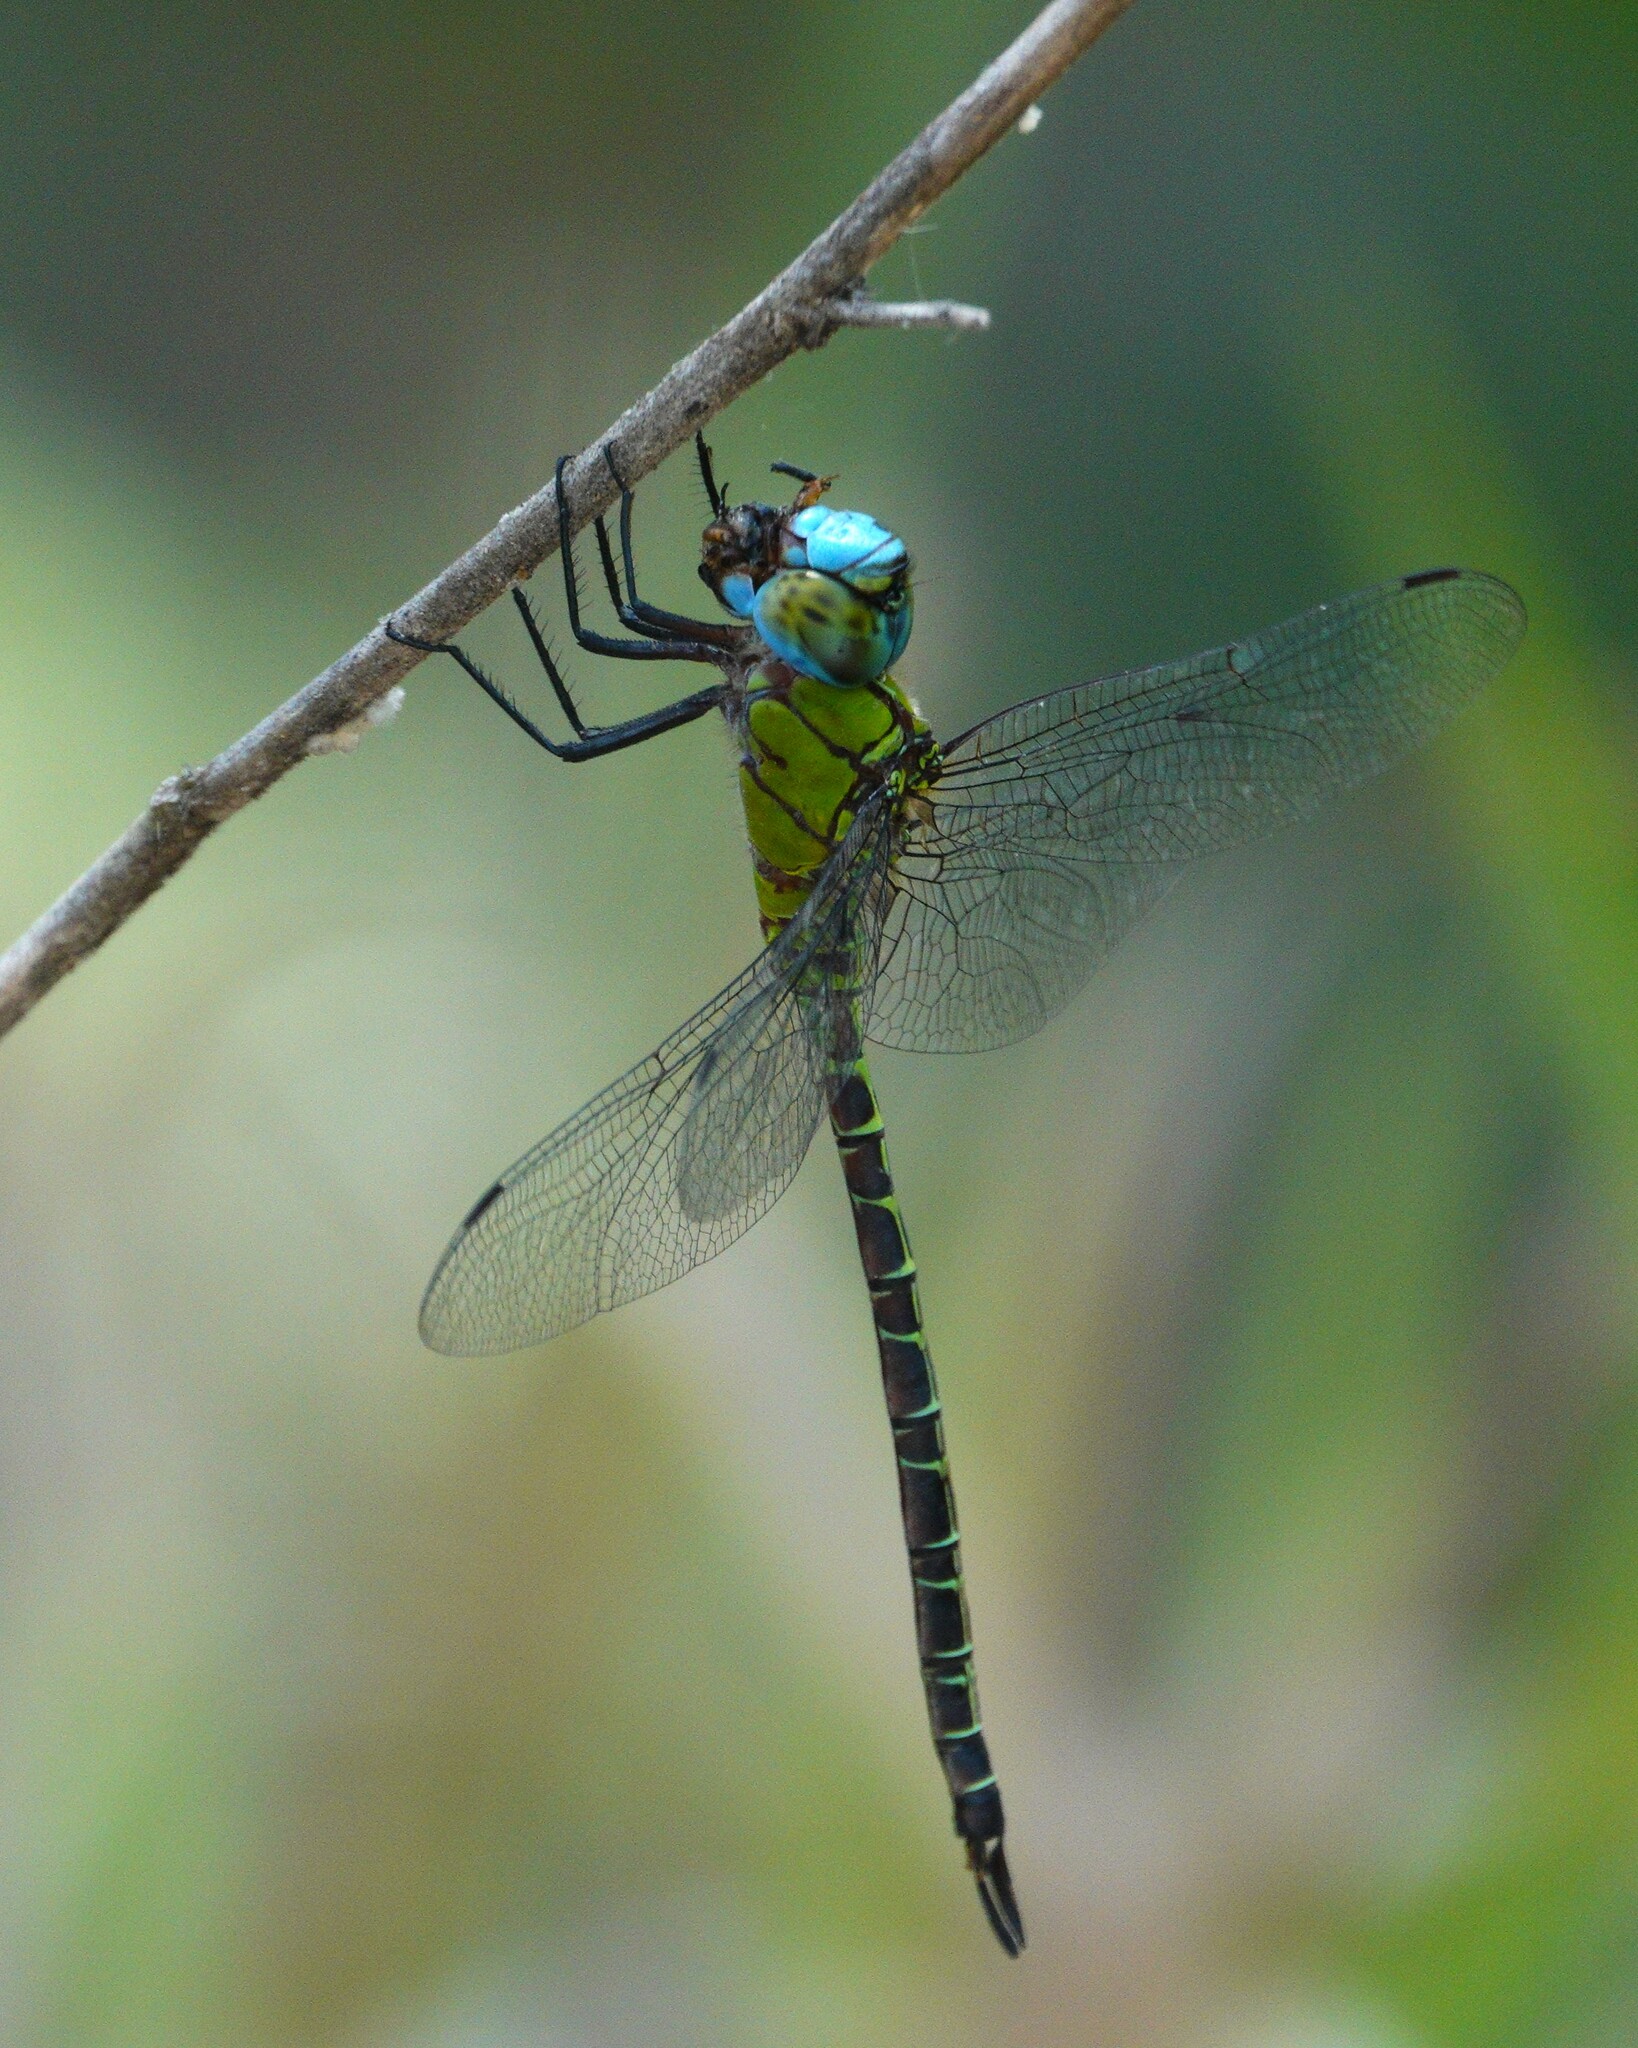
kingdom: Animalia
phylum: Arthropoda
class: Insecta
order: Odonata
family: Aeshnidae
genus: Coryphaeschna
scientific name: Coryphaeschna adnexa
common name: Blue-faced darner
